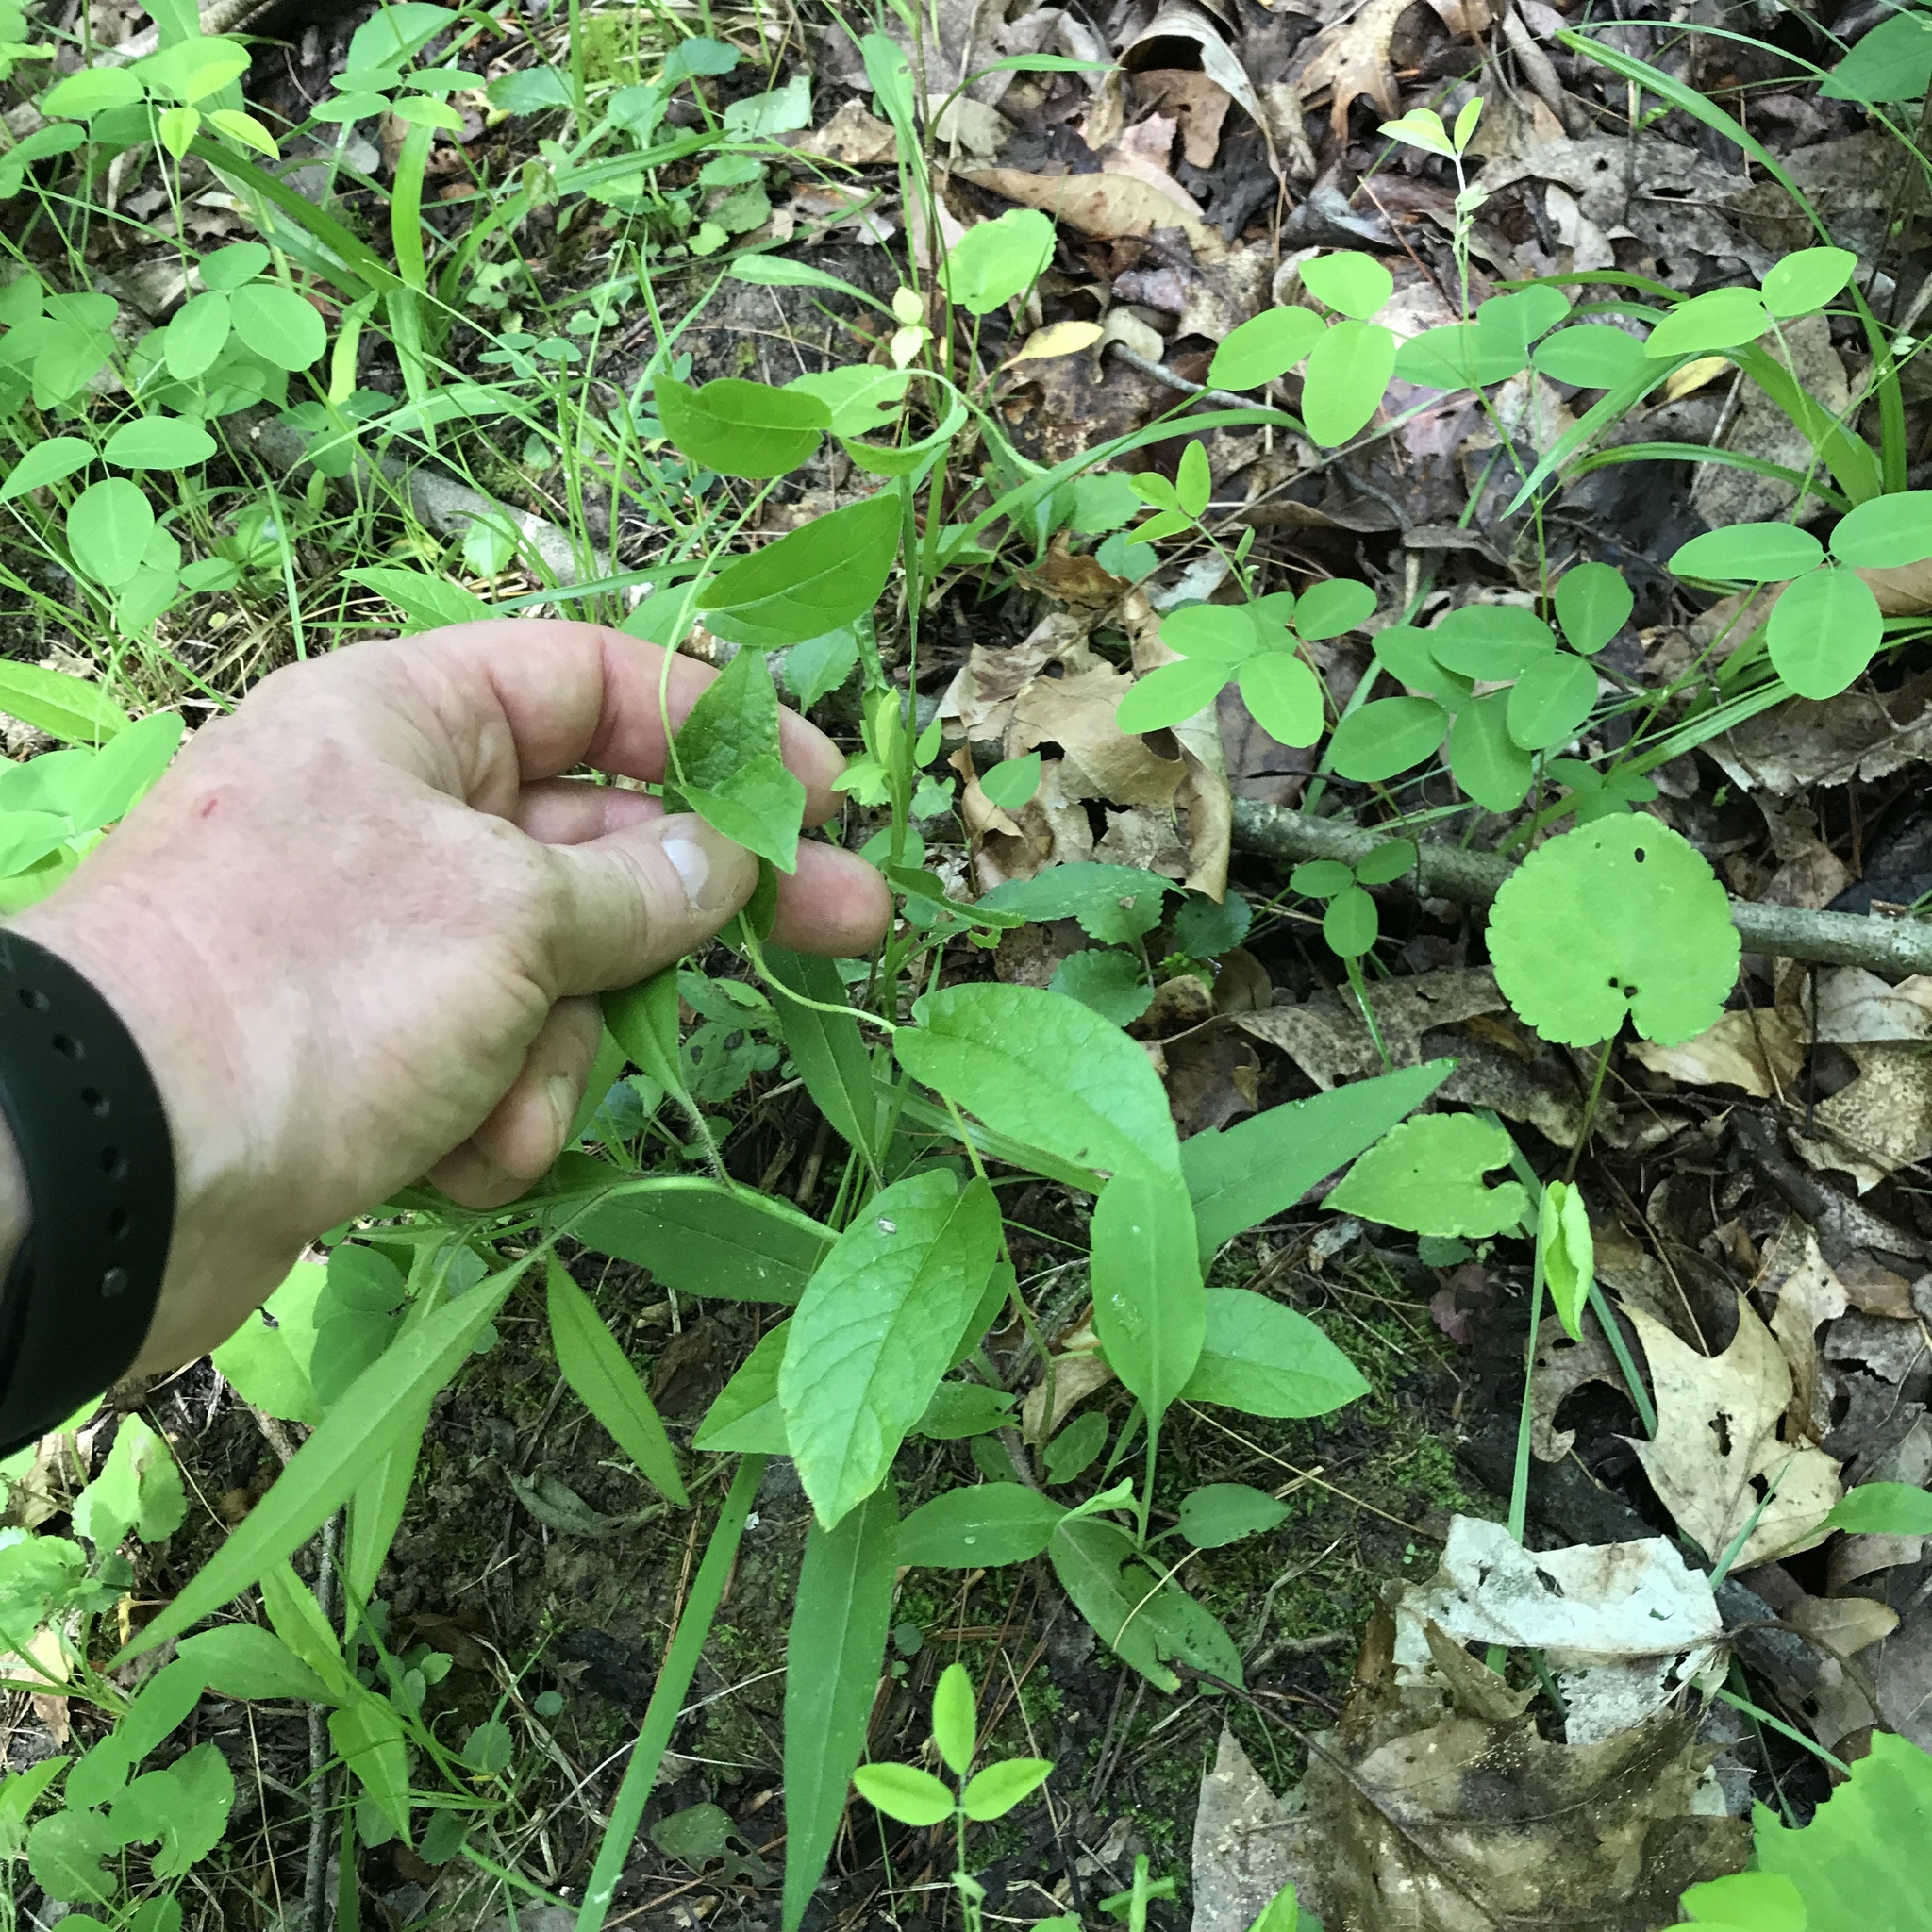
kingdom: Plantae
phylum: Tracheophyta
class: Magnoliopsida
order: Solanales
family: Convolvulaceae
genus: Calystegia
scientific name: Calystegia spithamaea
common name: Dwarf bindweed
